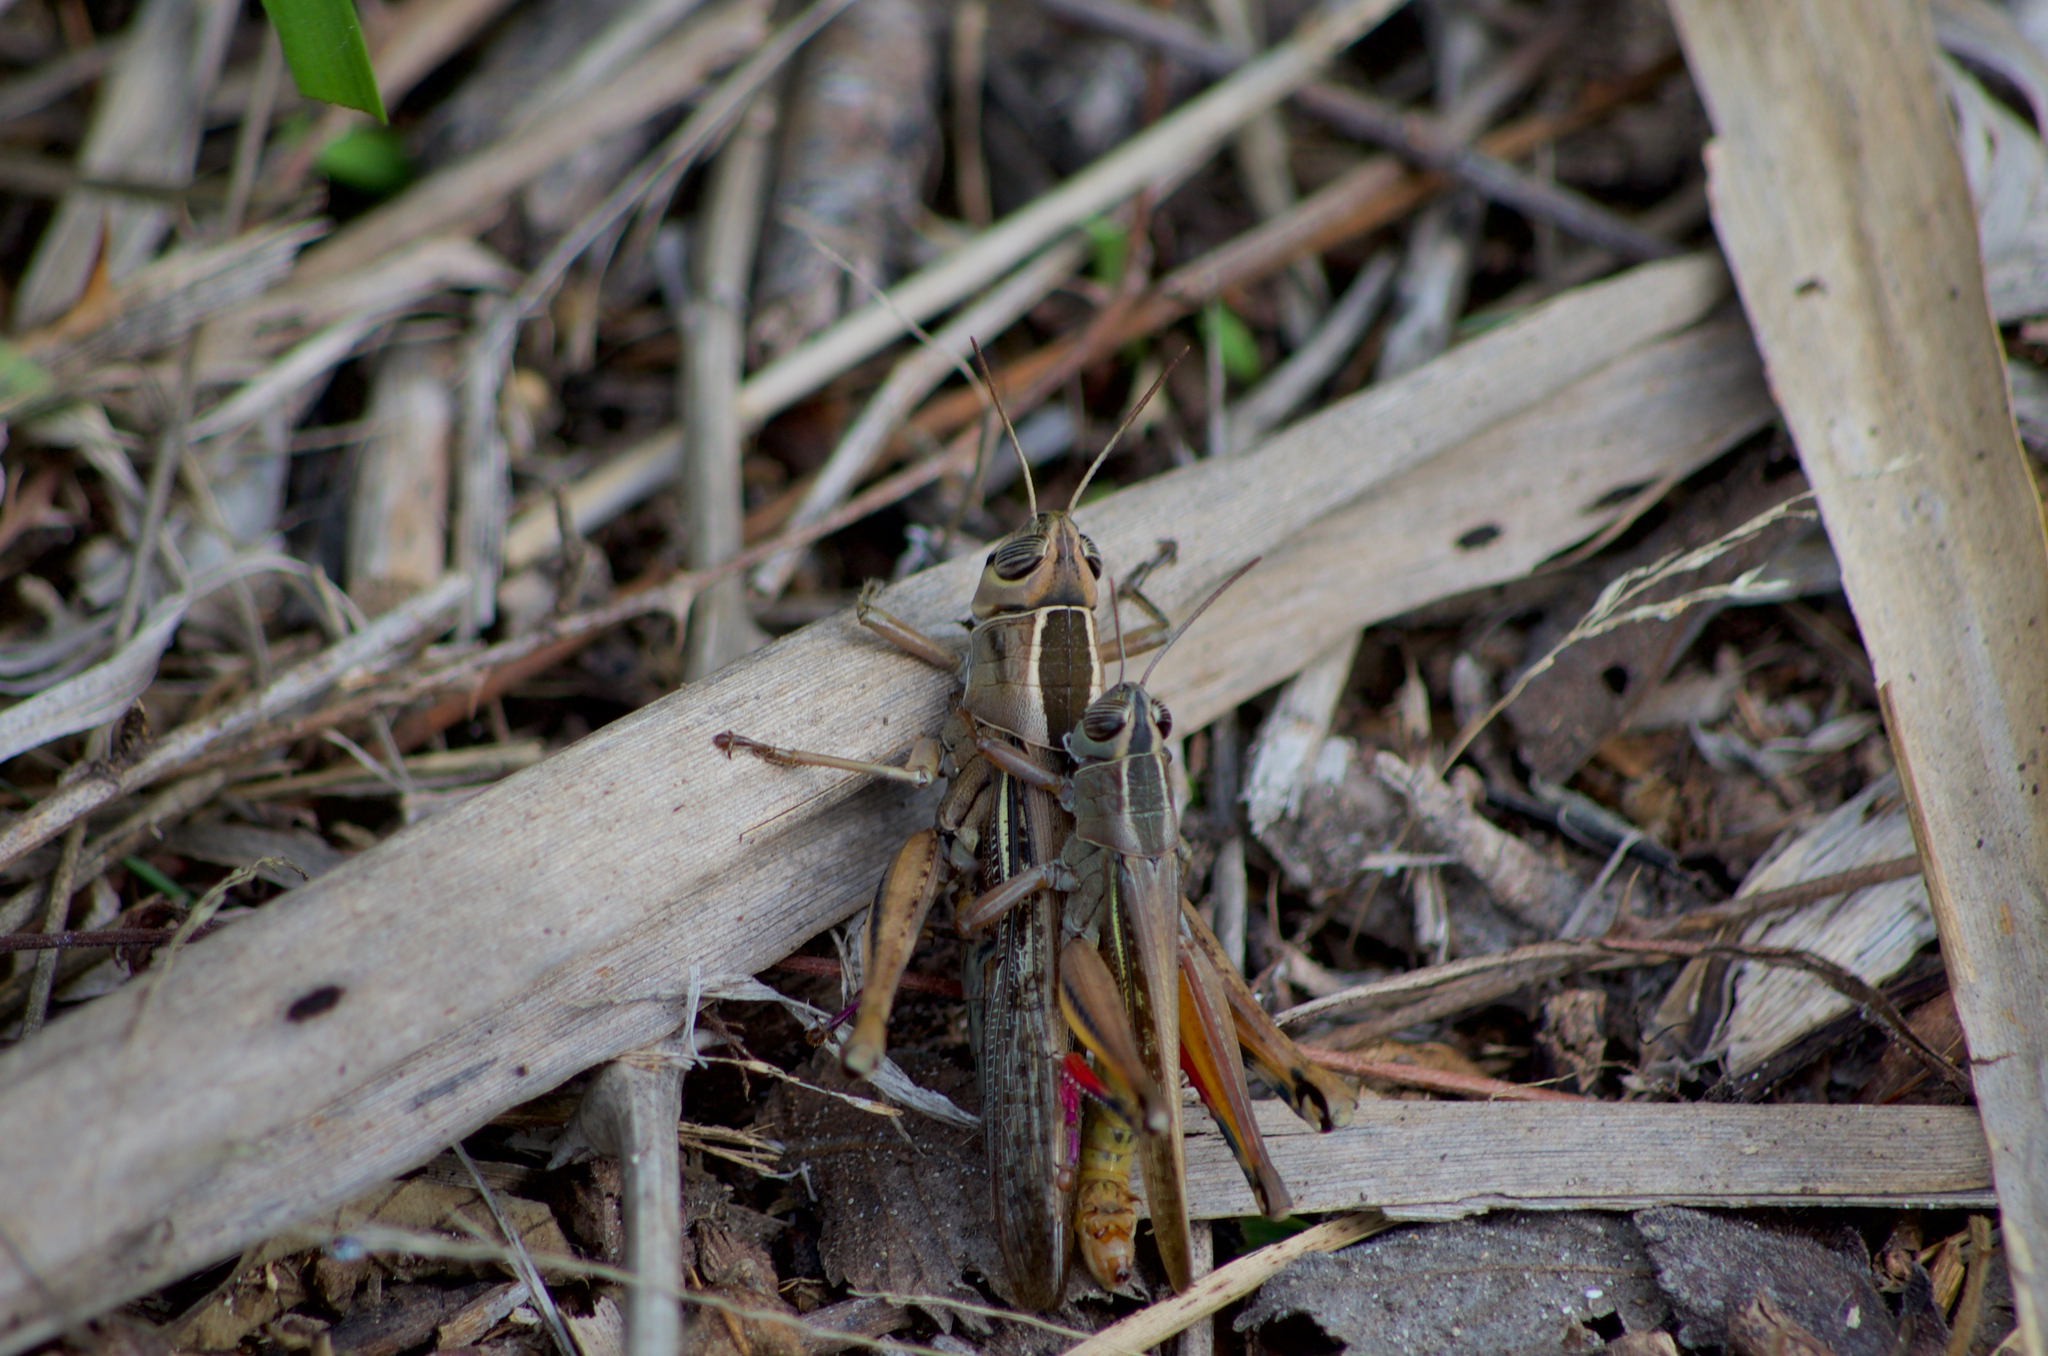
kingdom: Animalia
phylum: Arthropoda
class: Insecta
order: Orthoptera
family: Acrididae
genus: Eyprepocnemis
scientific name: Eyprepocnemis plorans
